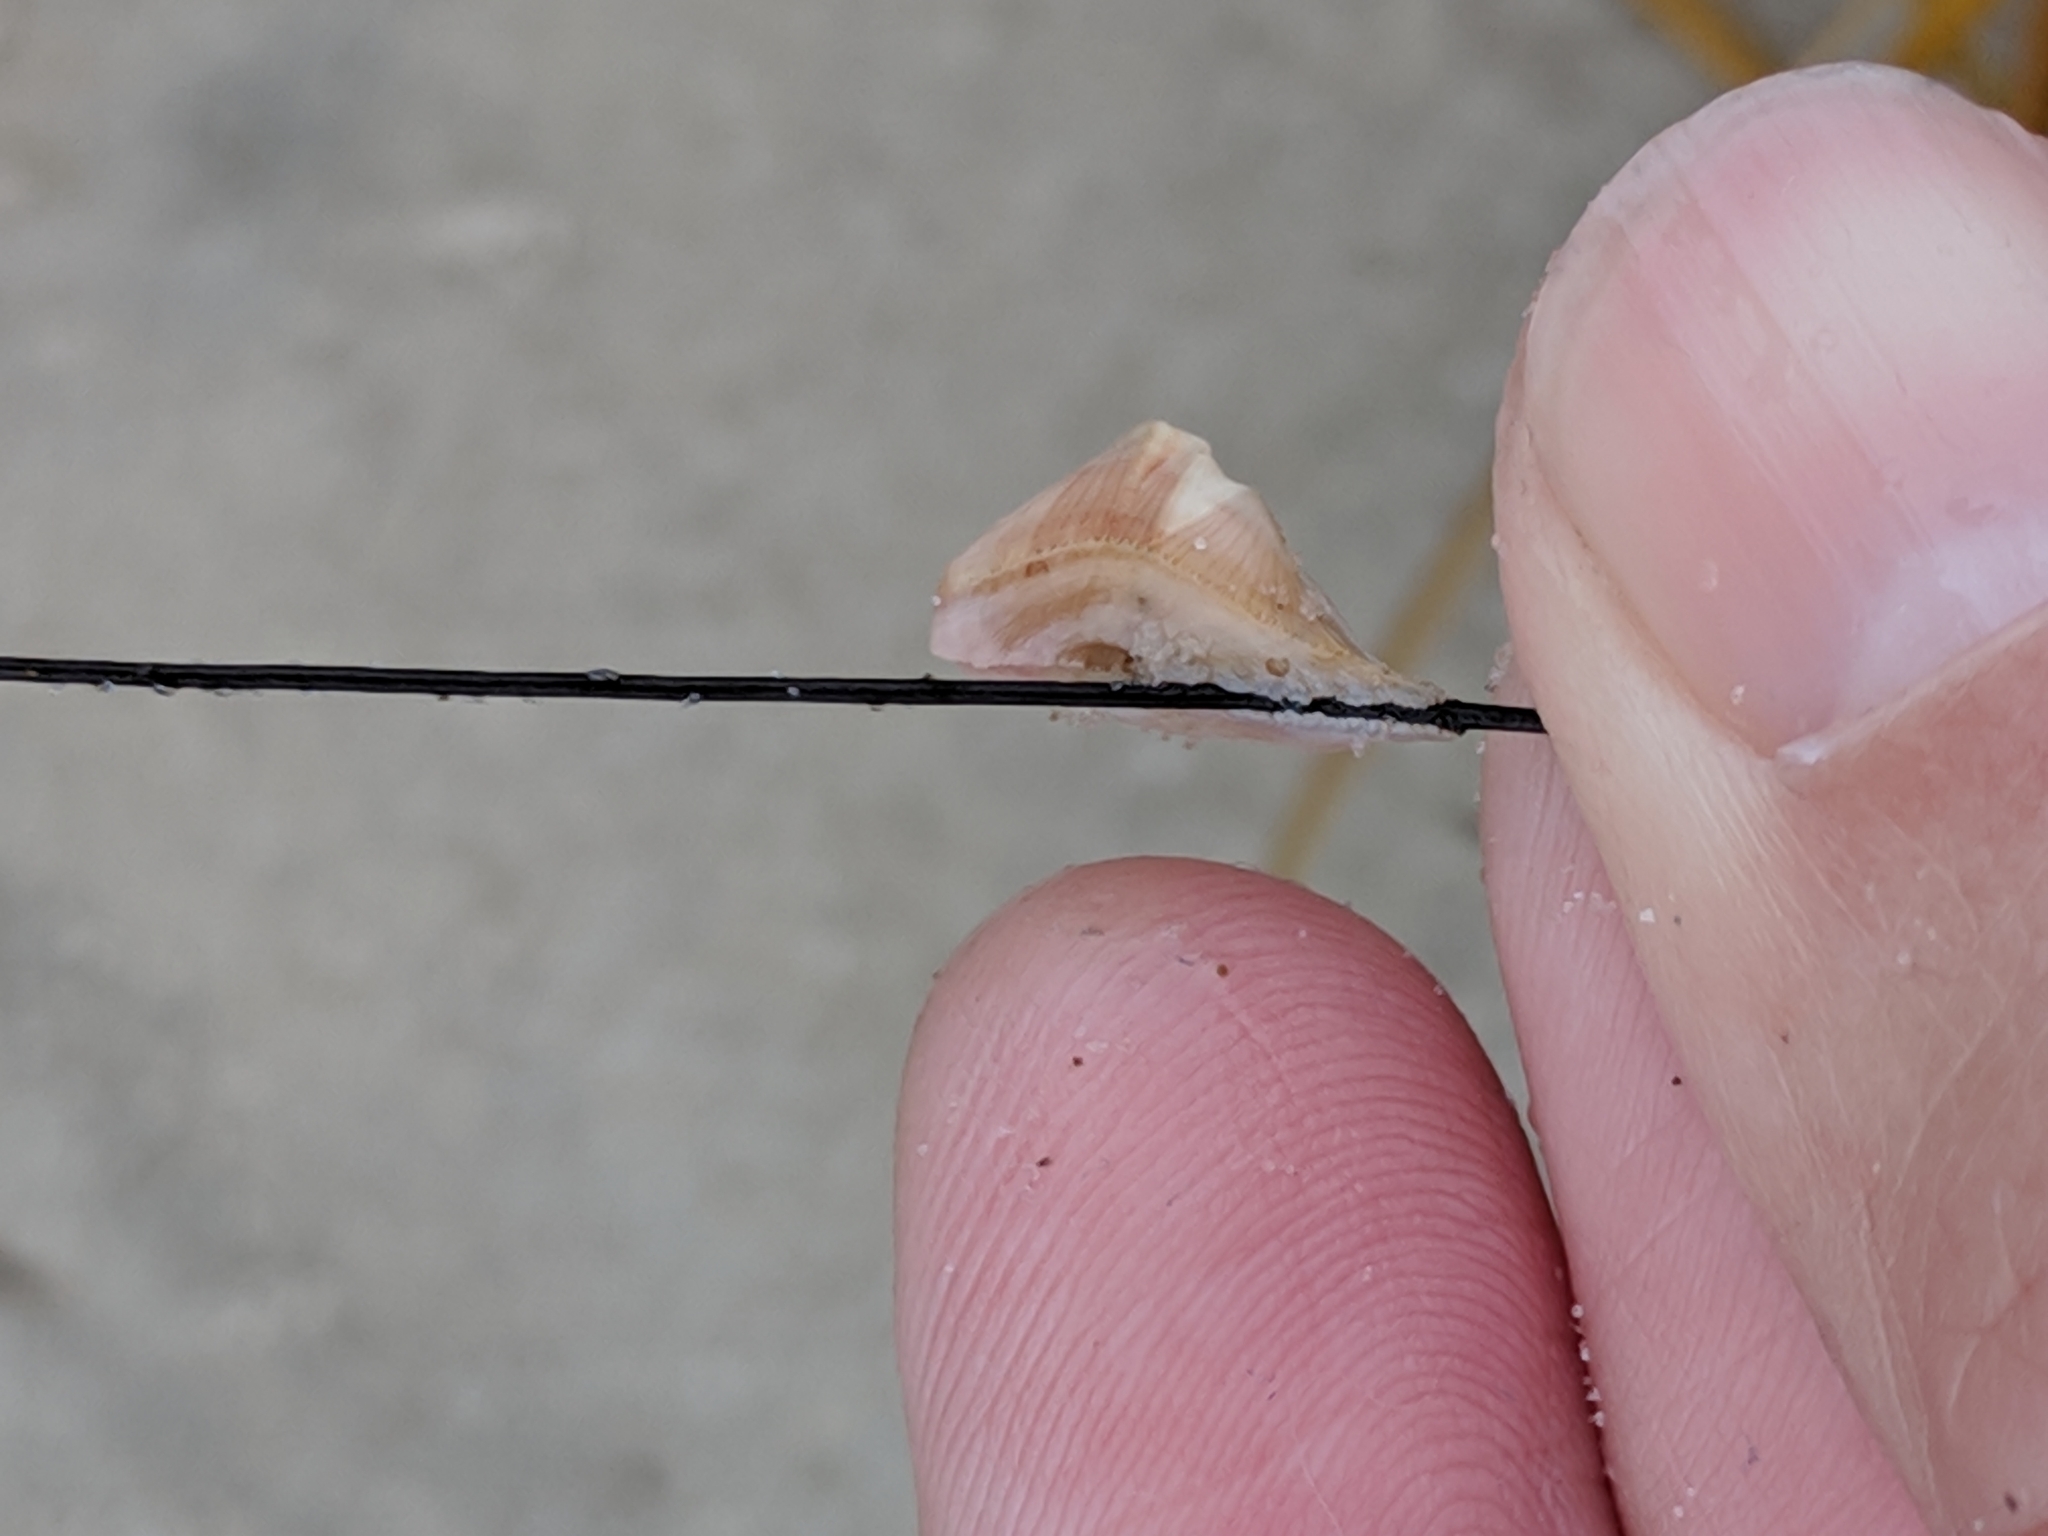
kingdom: Animalia
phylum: Arthropoda
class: Maxillopoda
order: Sessilia
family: Archaeobalanidae
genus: Conopea
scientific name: Conopea galeata
